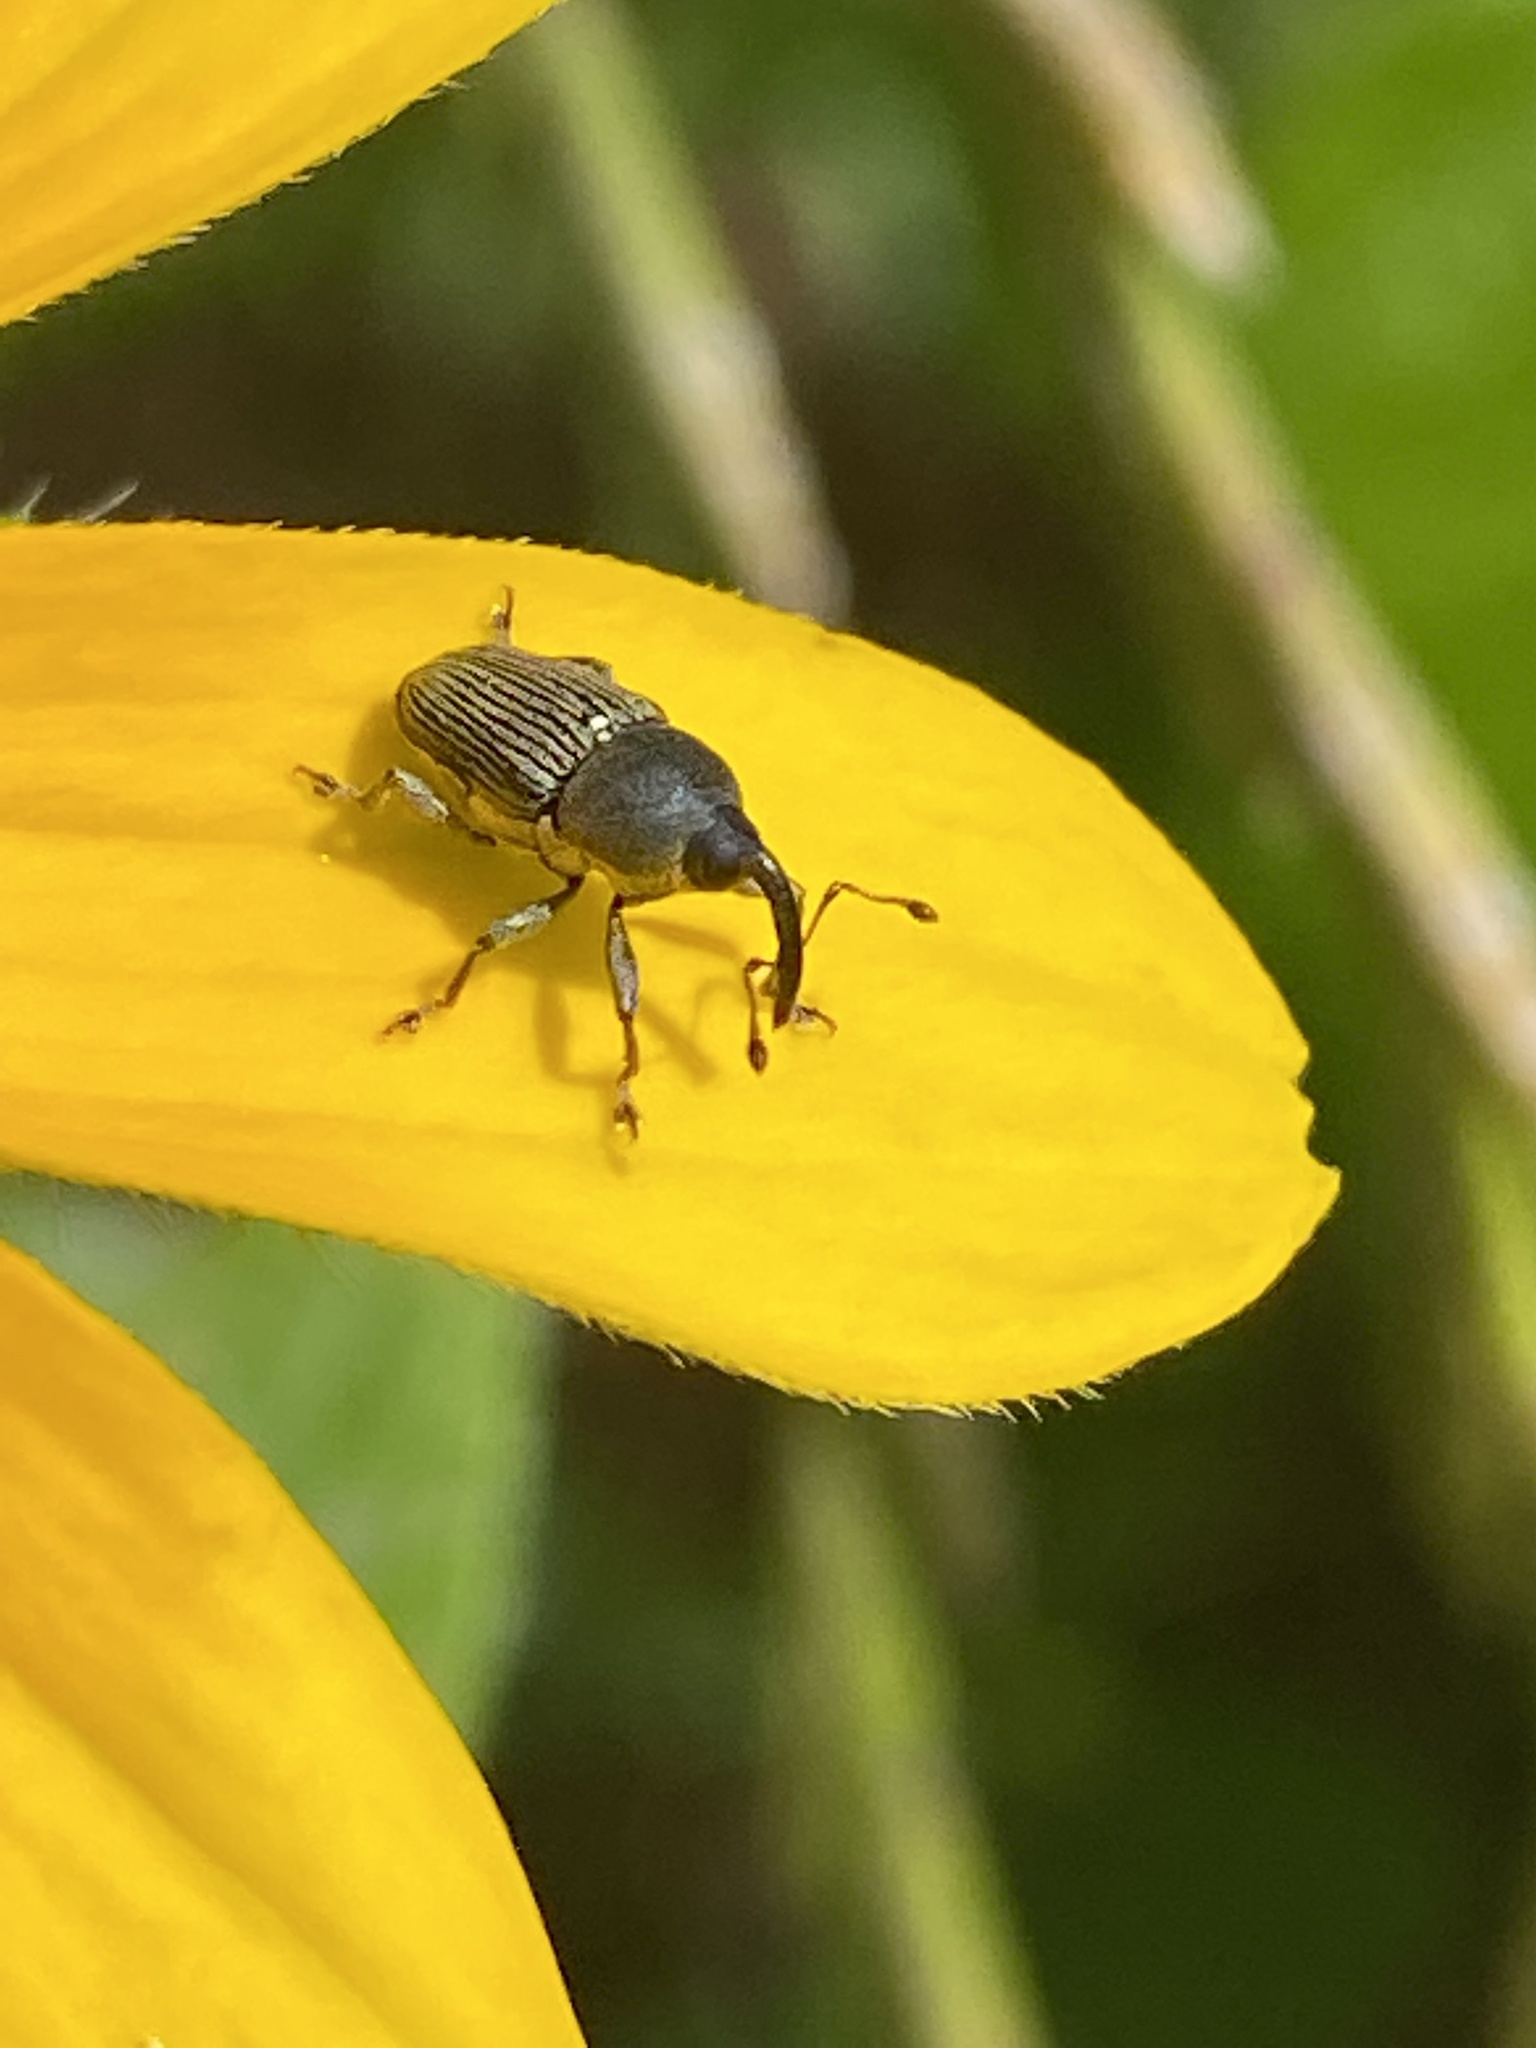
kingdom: Animalia
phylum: Arthropoda
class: Insecta
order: Coleoptera
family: Curculionidae
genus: Odontocorynus
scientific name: Odontocorynus salebrosus
